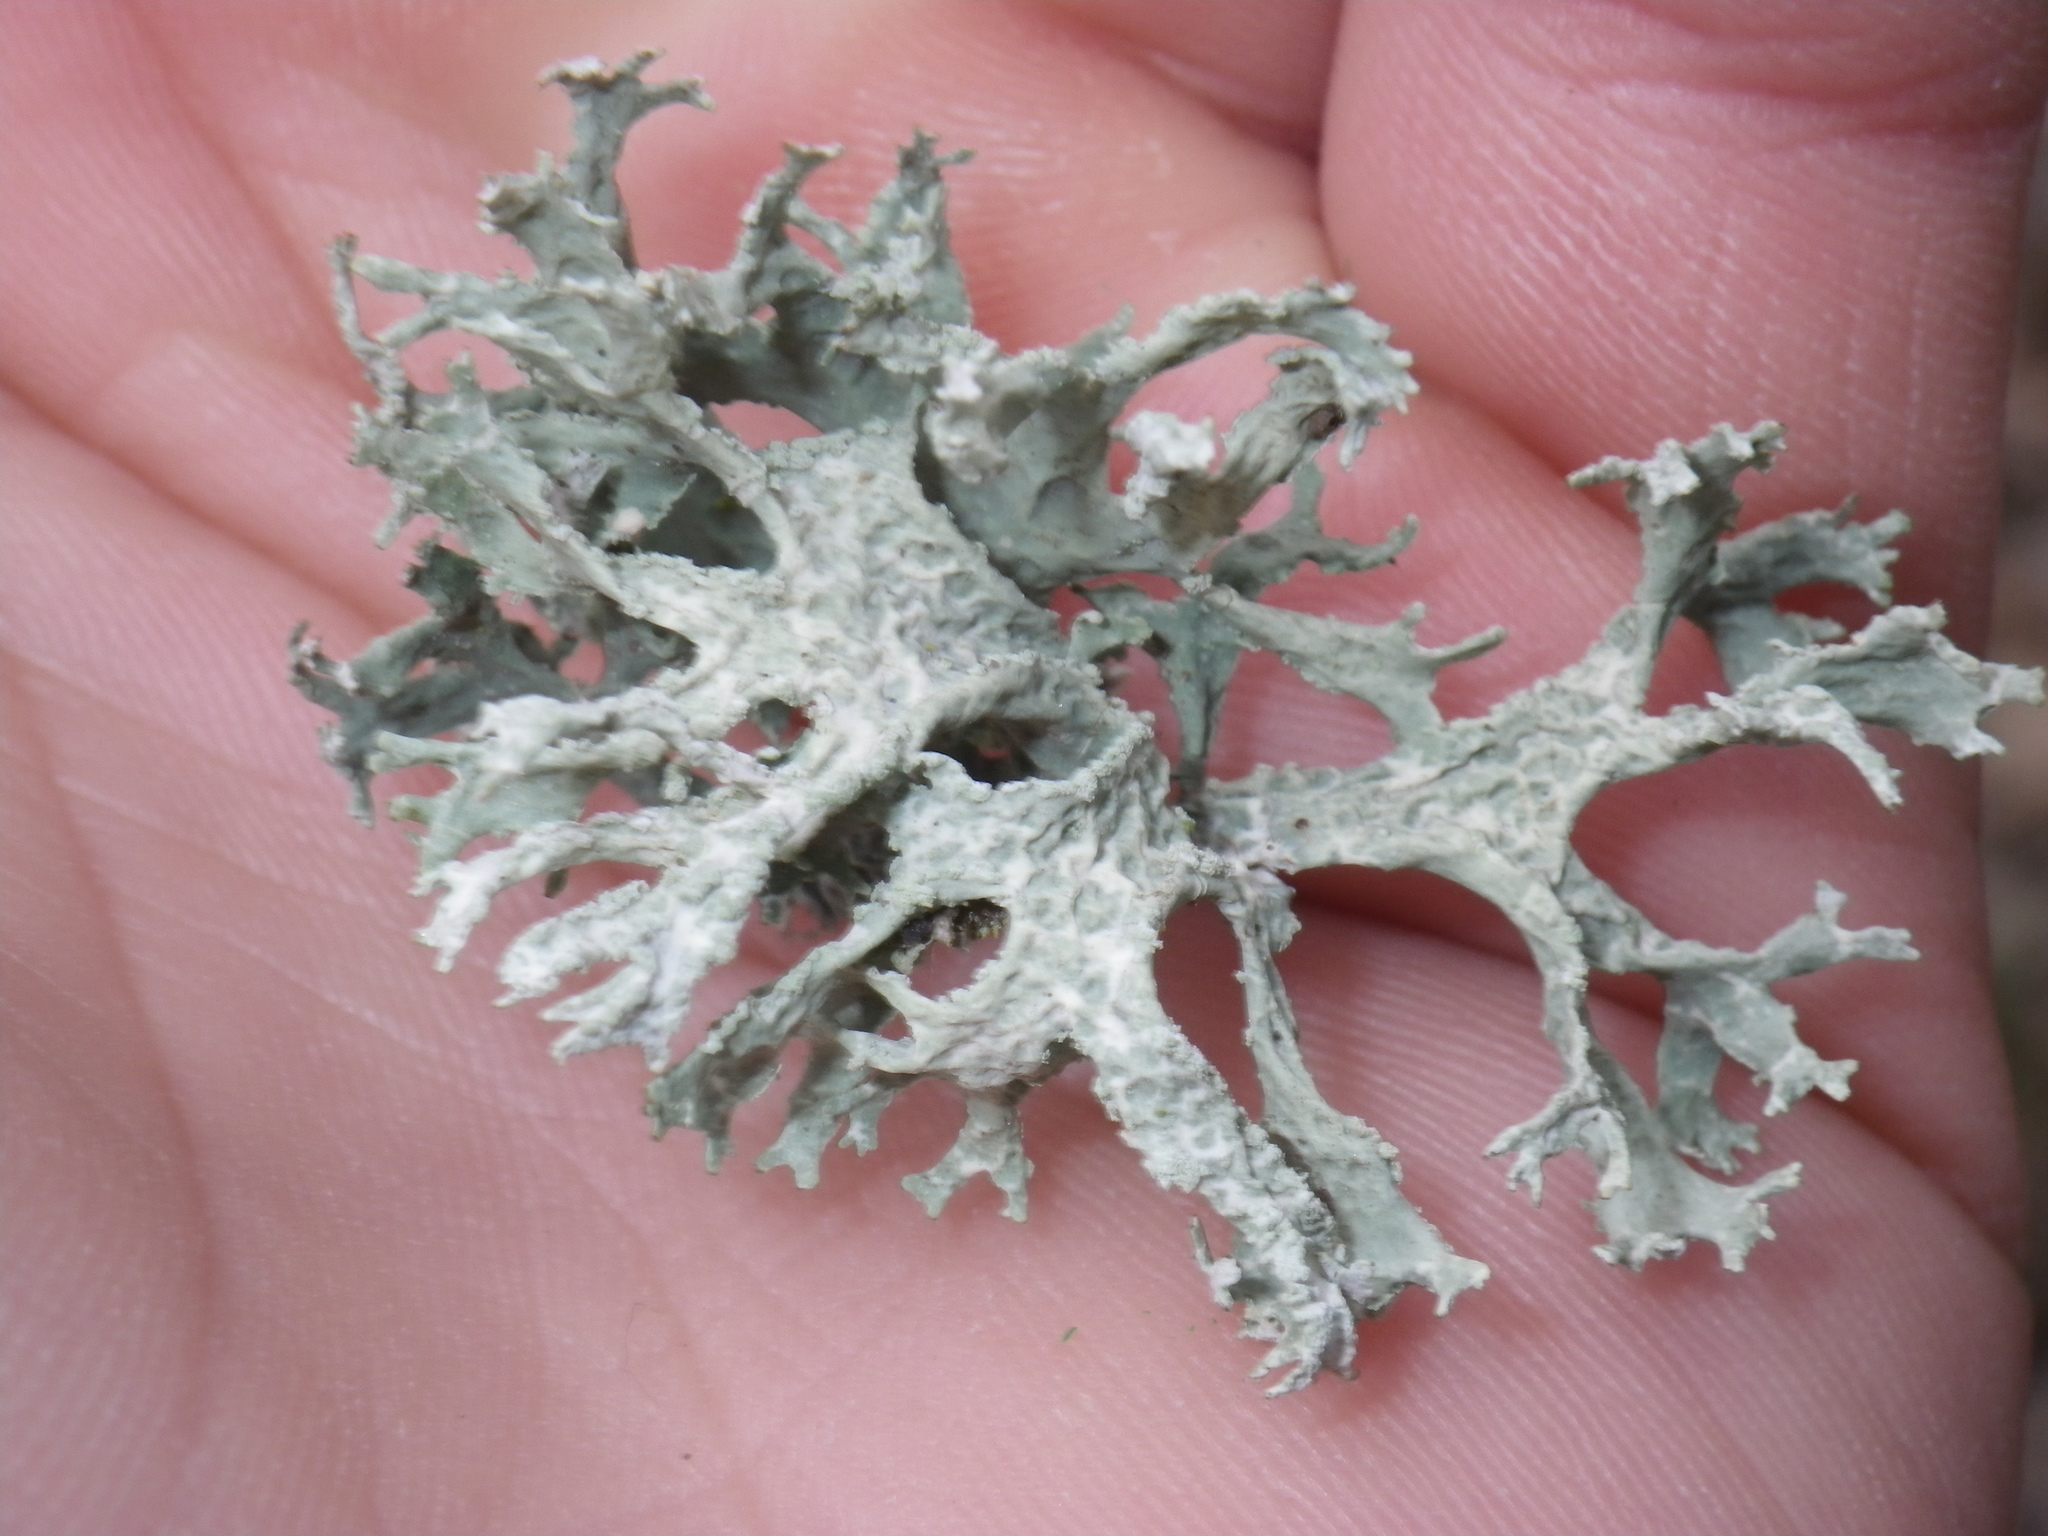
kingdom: Fungi
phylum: Ascomycota
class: Lecanoromycetes
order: Lecanorales
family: Parmeliaceae
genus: Evernia
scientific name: Evernia prunastri
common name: Oak moss
